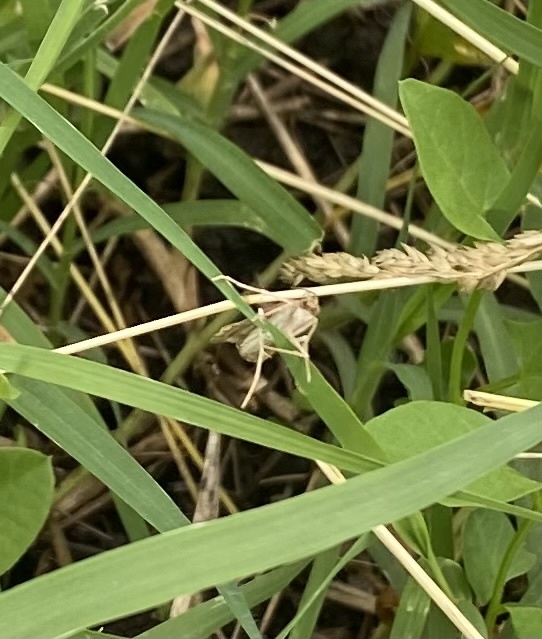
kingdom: Animalia
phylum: Arthropoda
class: Insecta
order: Lepidoptera
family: Crambidae
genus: Nomophila
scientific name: Nomophila noctuella
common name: Rush veneer
